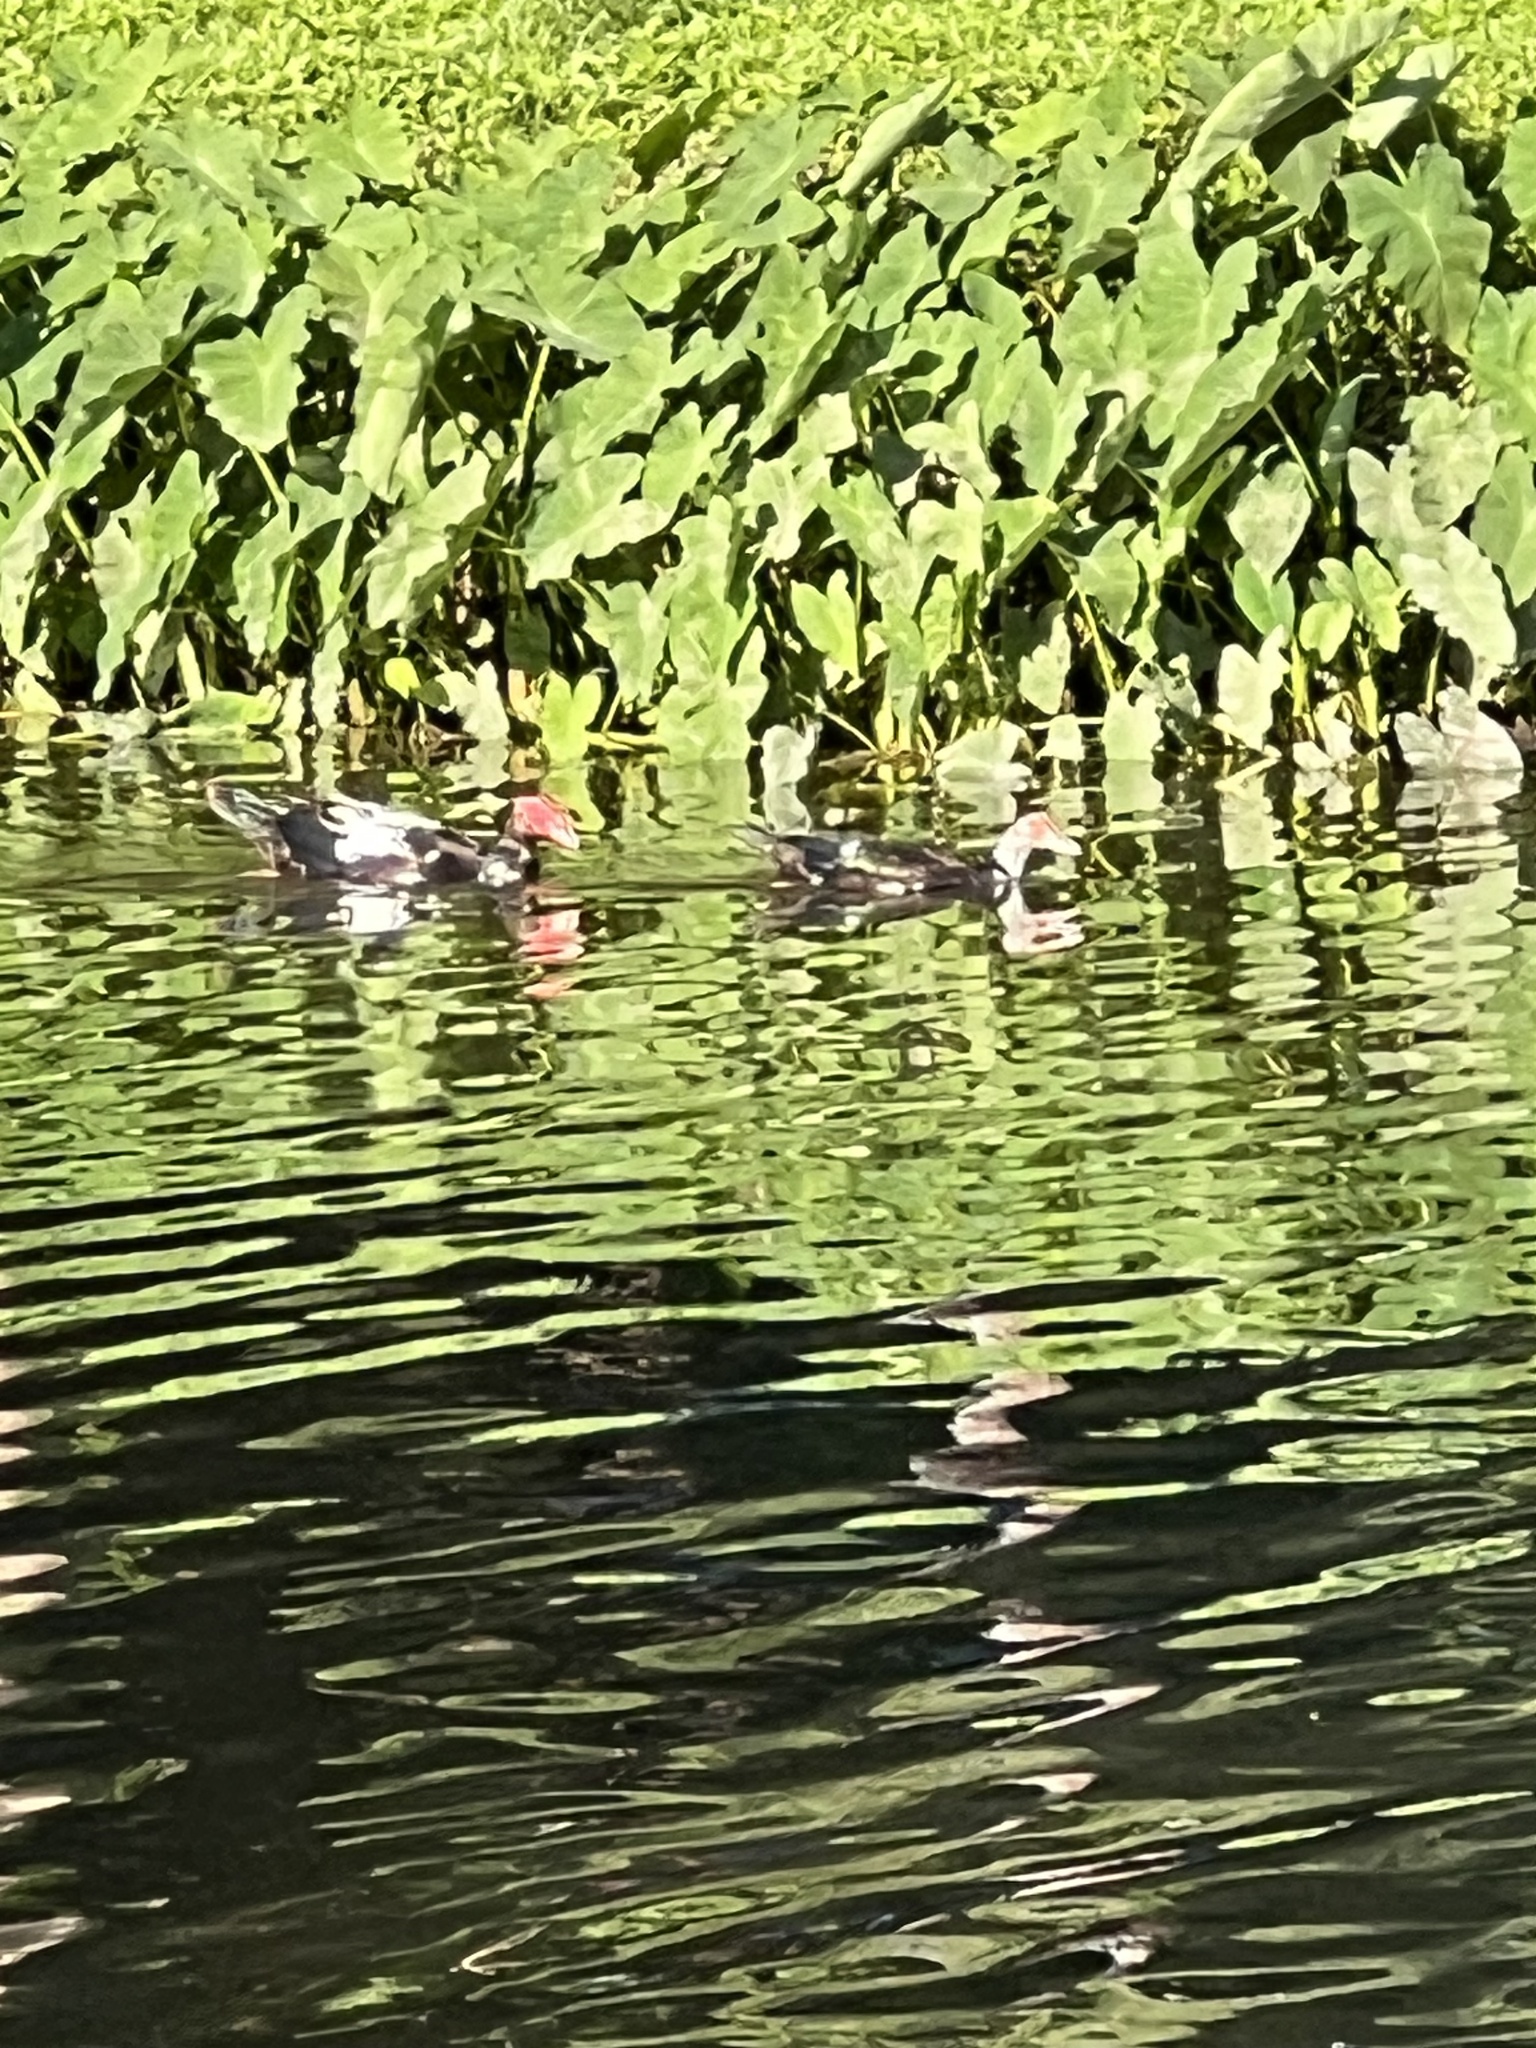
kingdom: Animalia
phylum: Chordata
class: Aves
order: Anseriformes
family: Anatidae
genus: Cairina
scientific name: Cairina moschata
